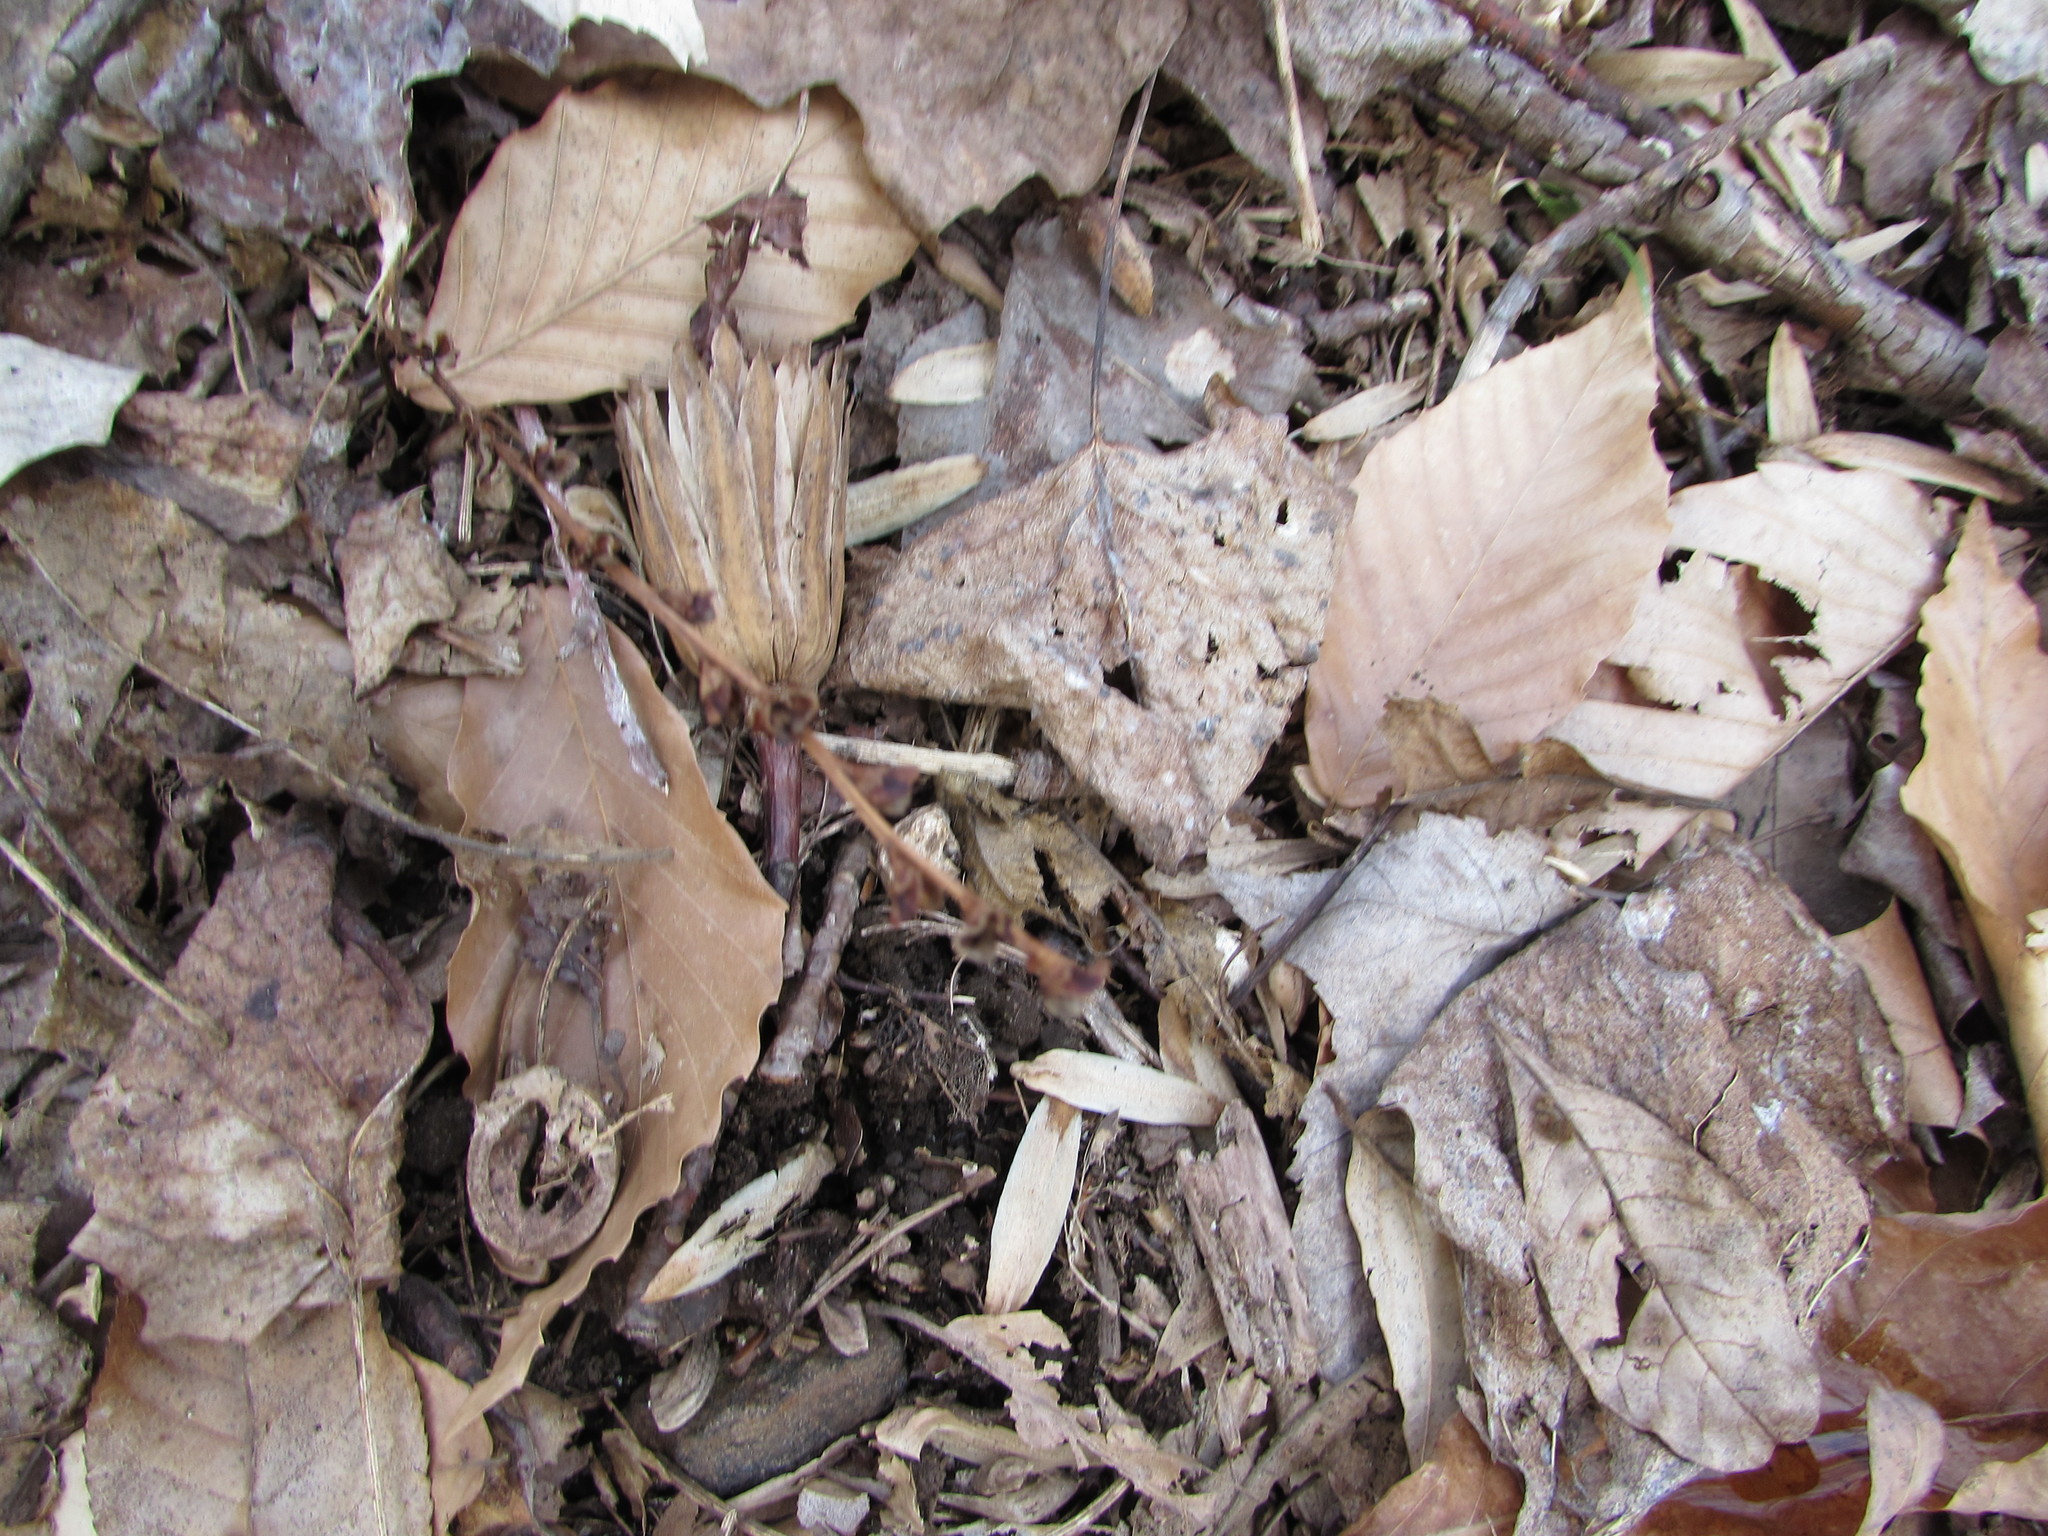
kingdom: Plantae
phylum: Tracheophyta
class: Magnoliopsida
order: Magnoliales
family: Magnoliaceae
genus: Liriodendron
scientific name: Liriodendron tulipifera
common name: Tulip tree
